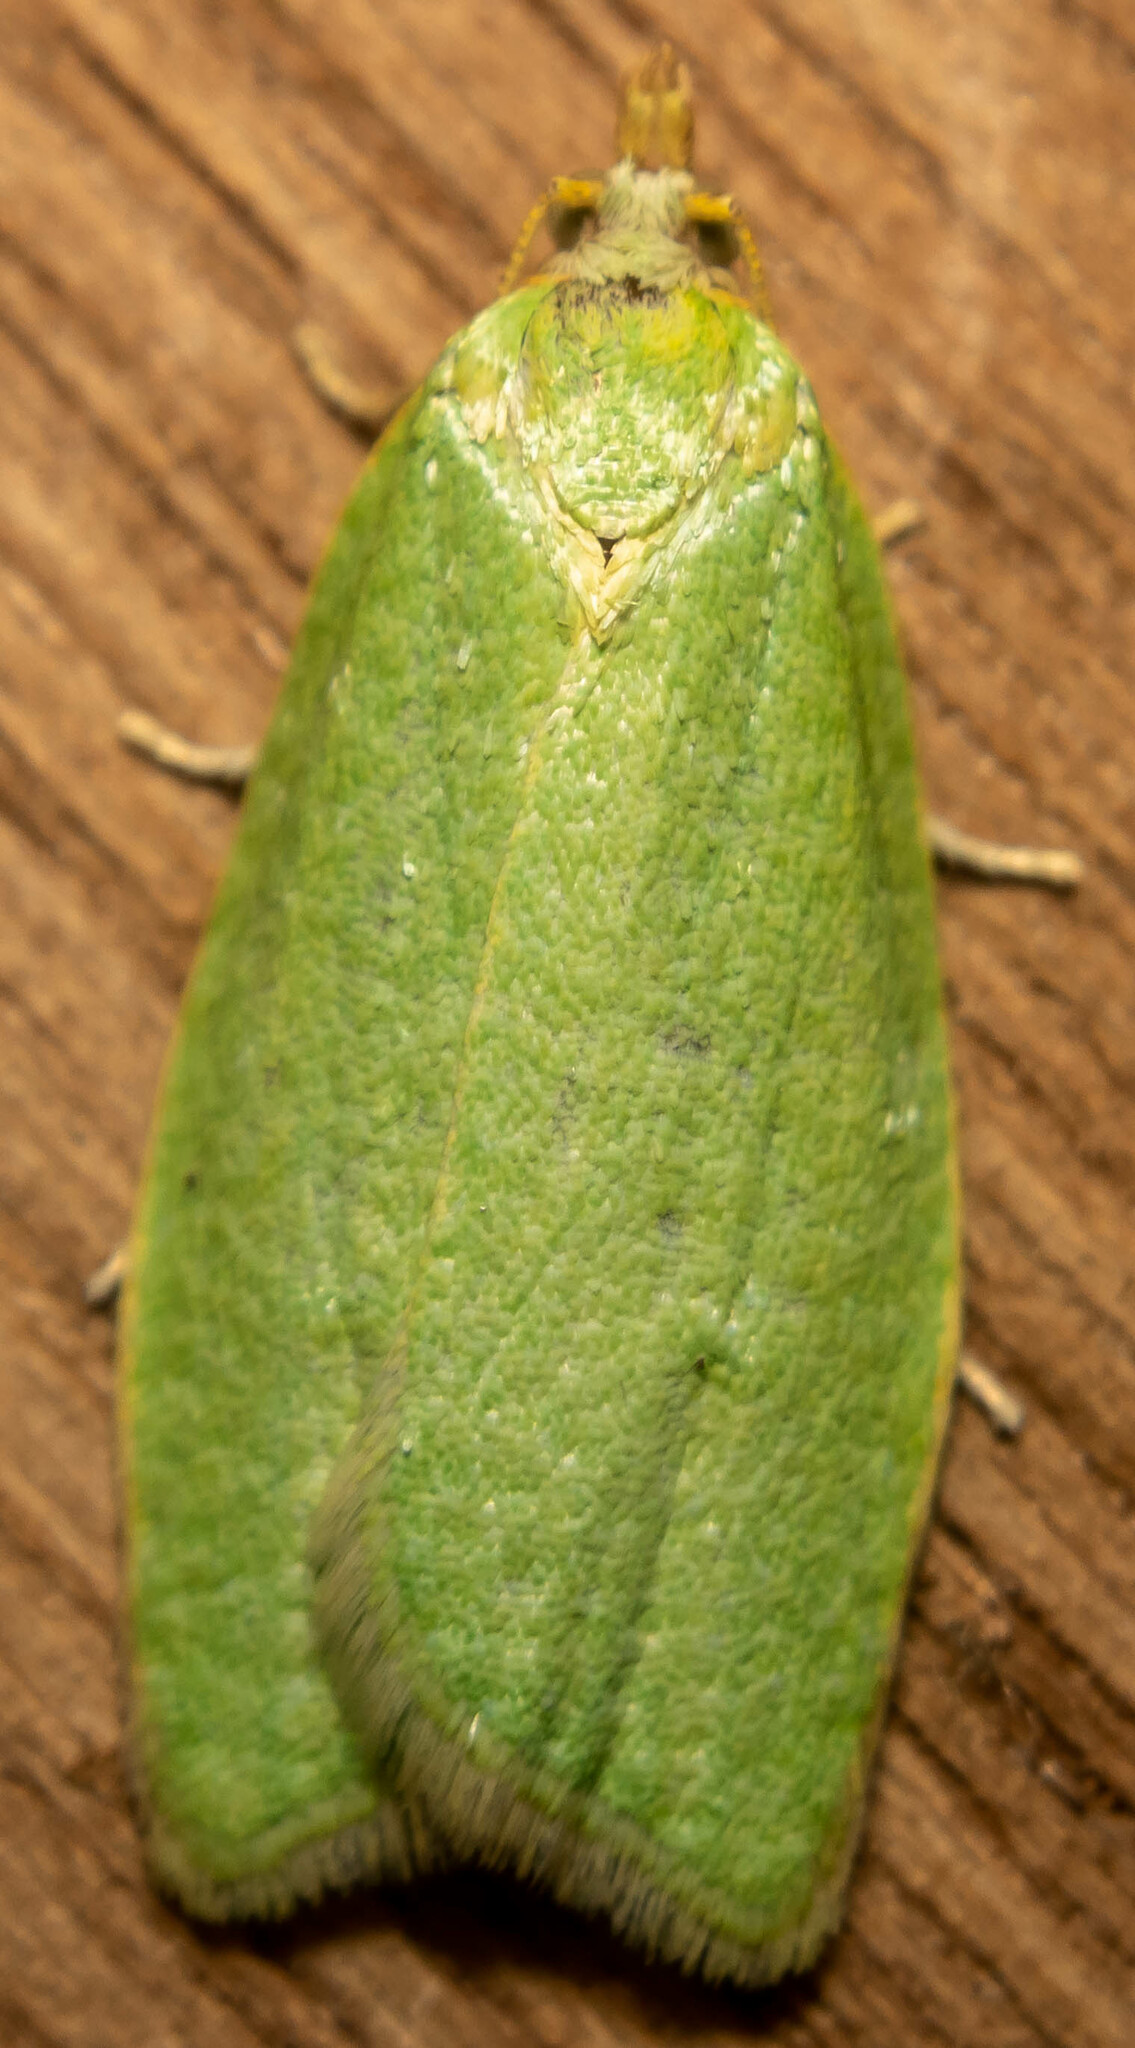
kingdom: Animalia
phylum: Arthropoda
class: Insecta
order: Lepidoptera
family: Tortricidae
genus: Tortrix
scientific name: Tortrix viridana
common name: Green oak tortrix
